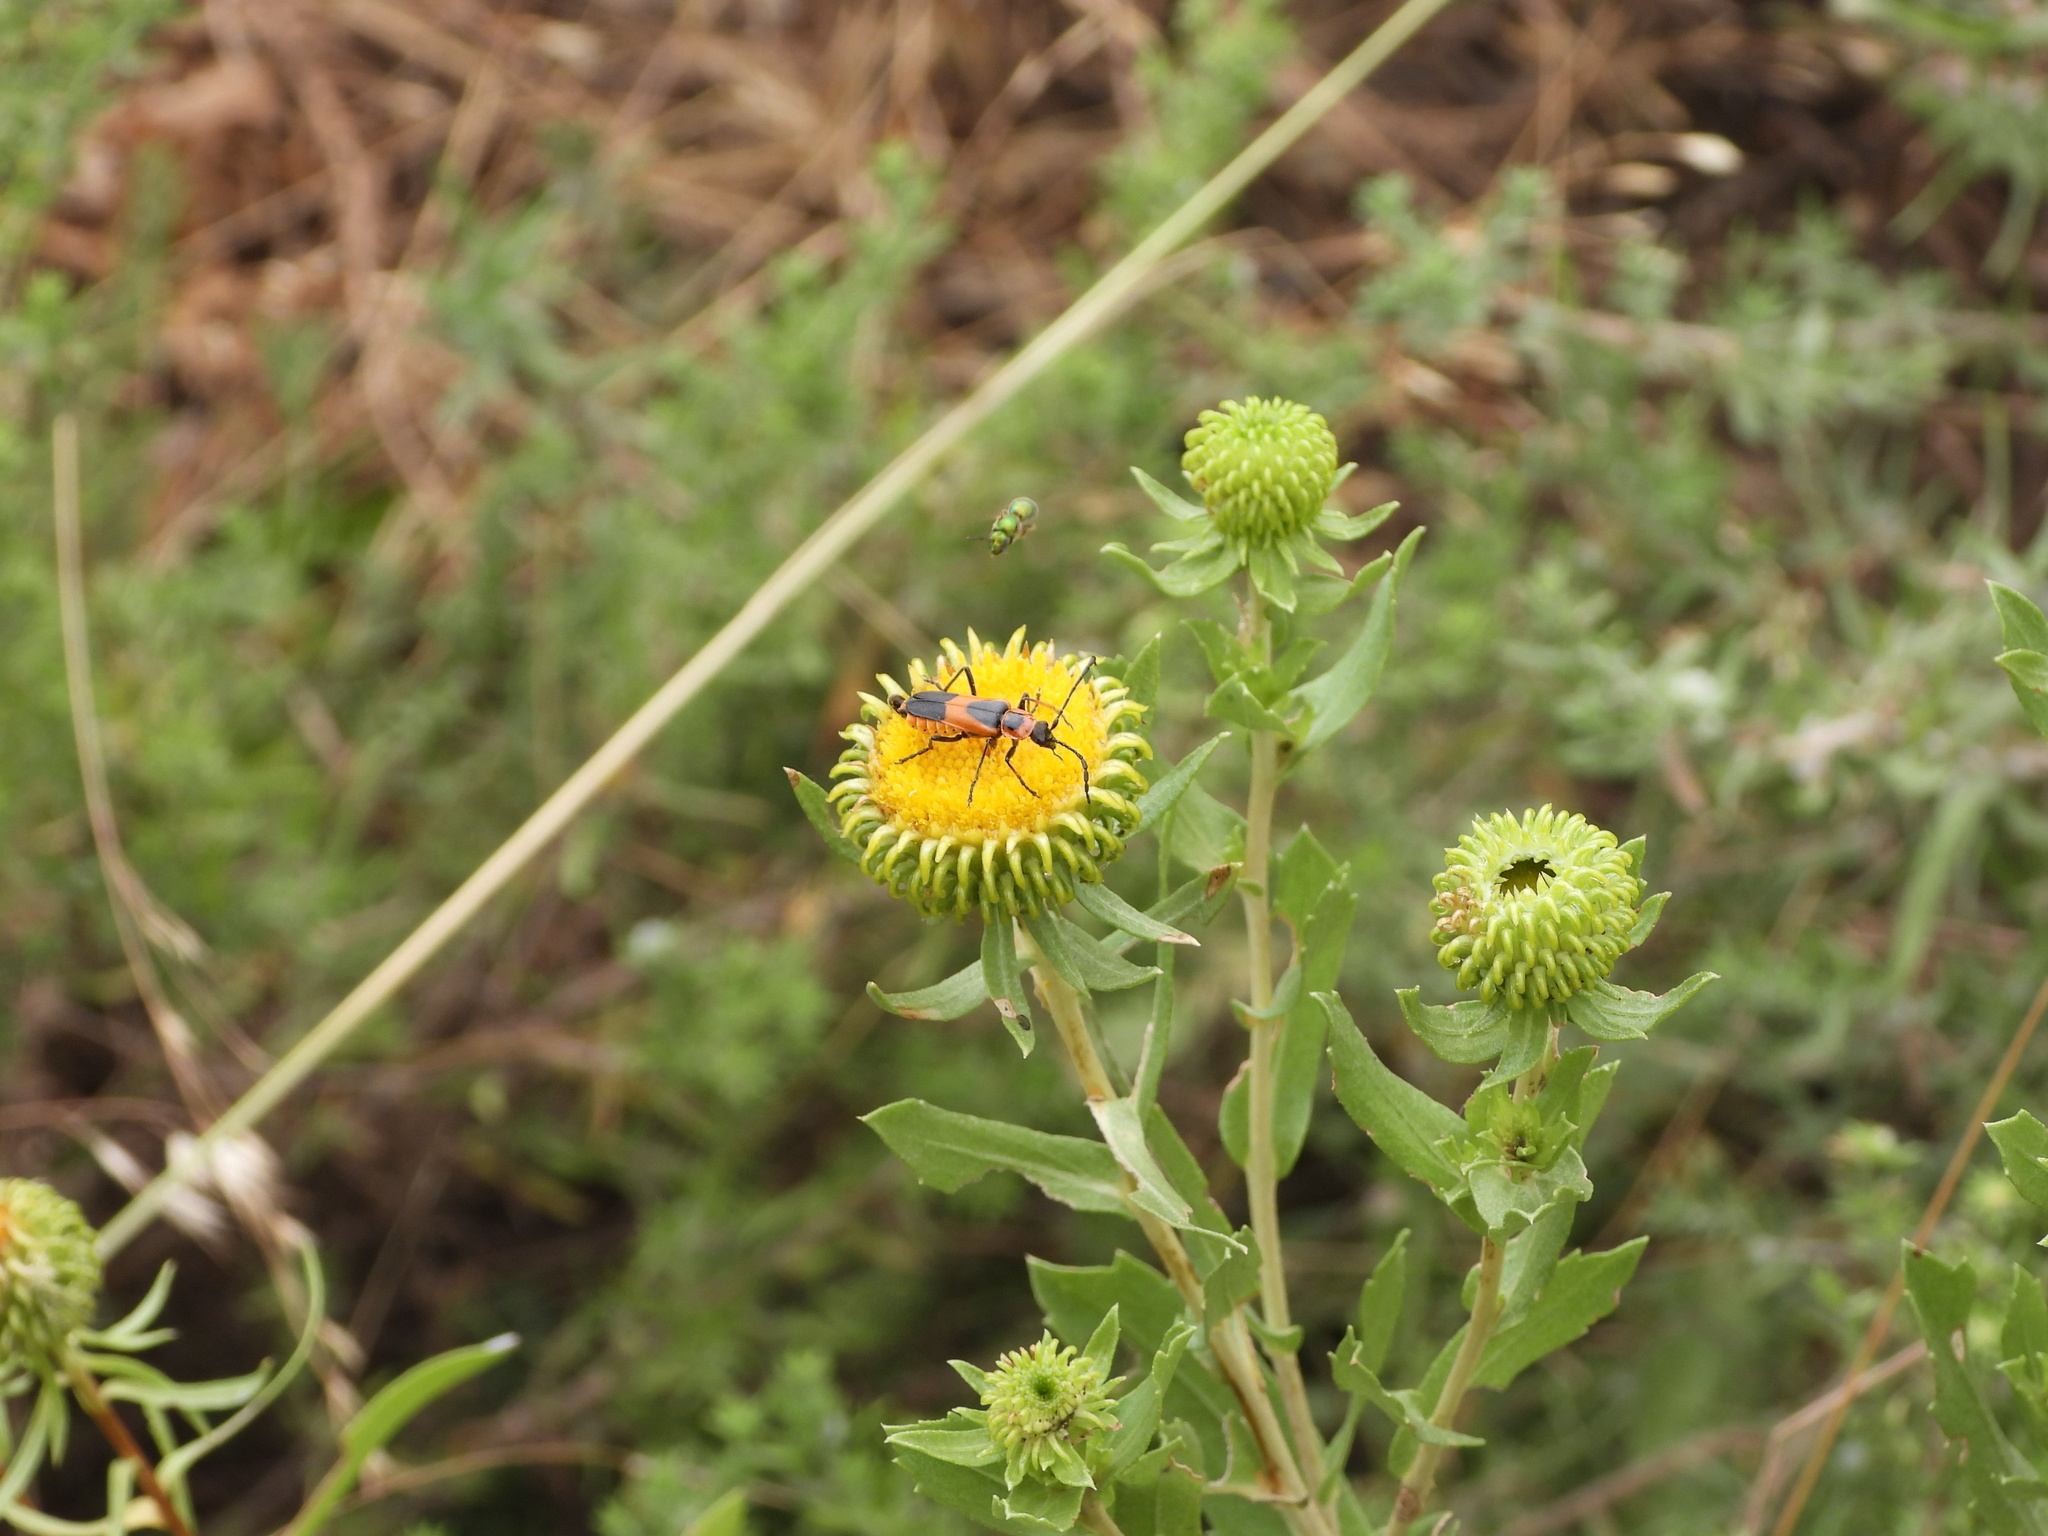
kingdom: Animalia
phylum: Arthropoda
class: Insecta
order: Coleoptera
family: Cantharidae
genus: Chauliognathus
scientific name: Chauliognathus basalis
